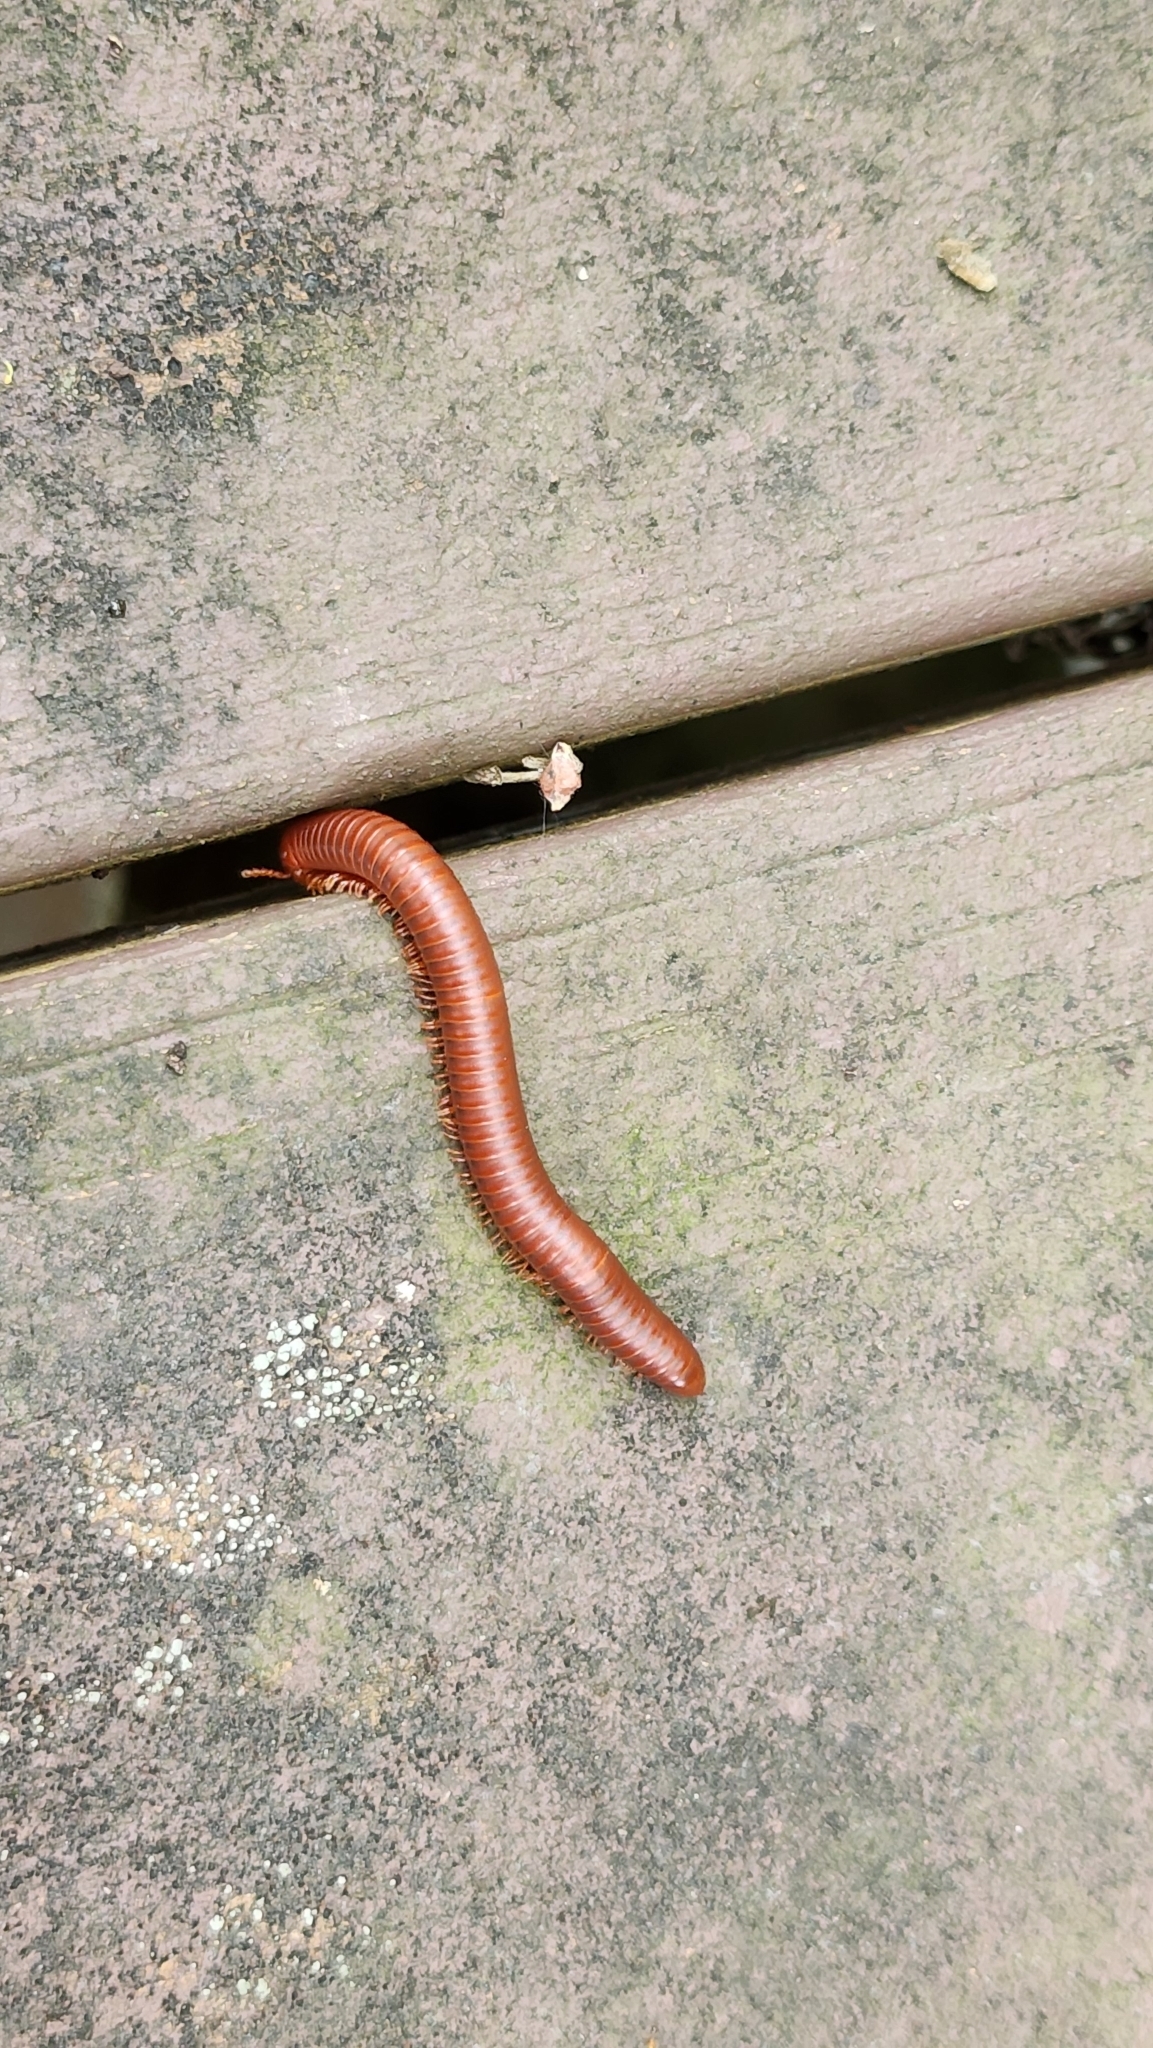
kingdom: Animalia
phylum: Arthropoda
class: Diplopoda
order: Spirobolida
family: Pachybolidae
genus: Trigoniulus
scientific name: Trigoniulus corallinus
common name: Millipede
